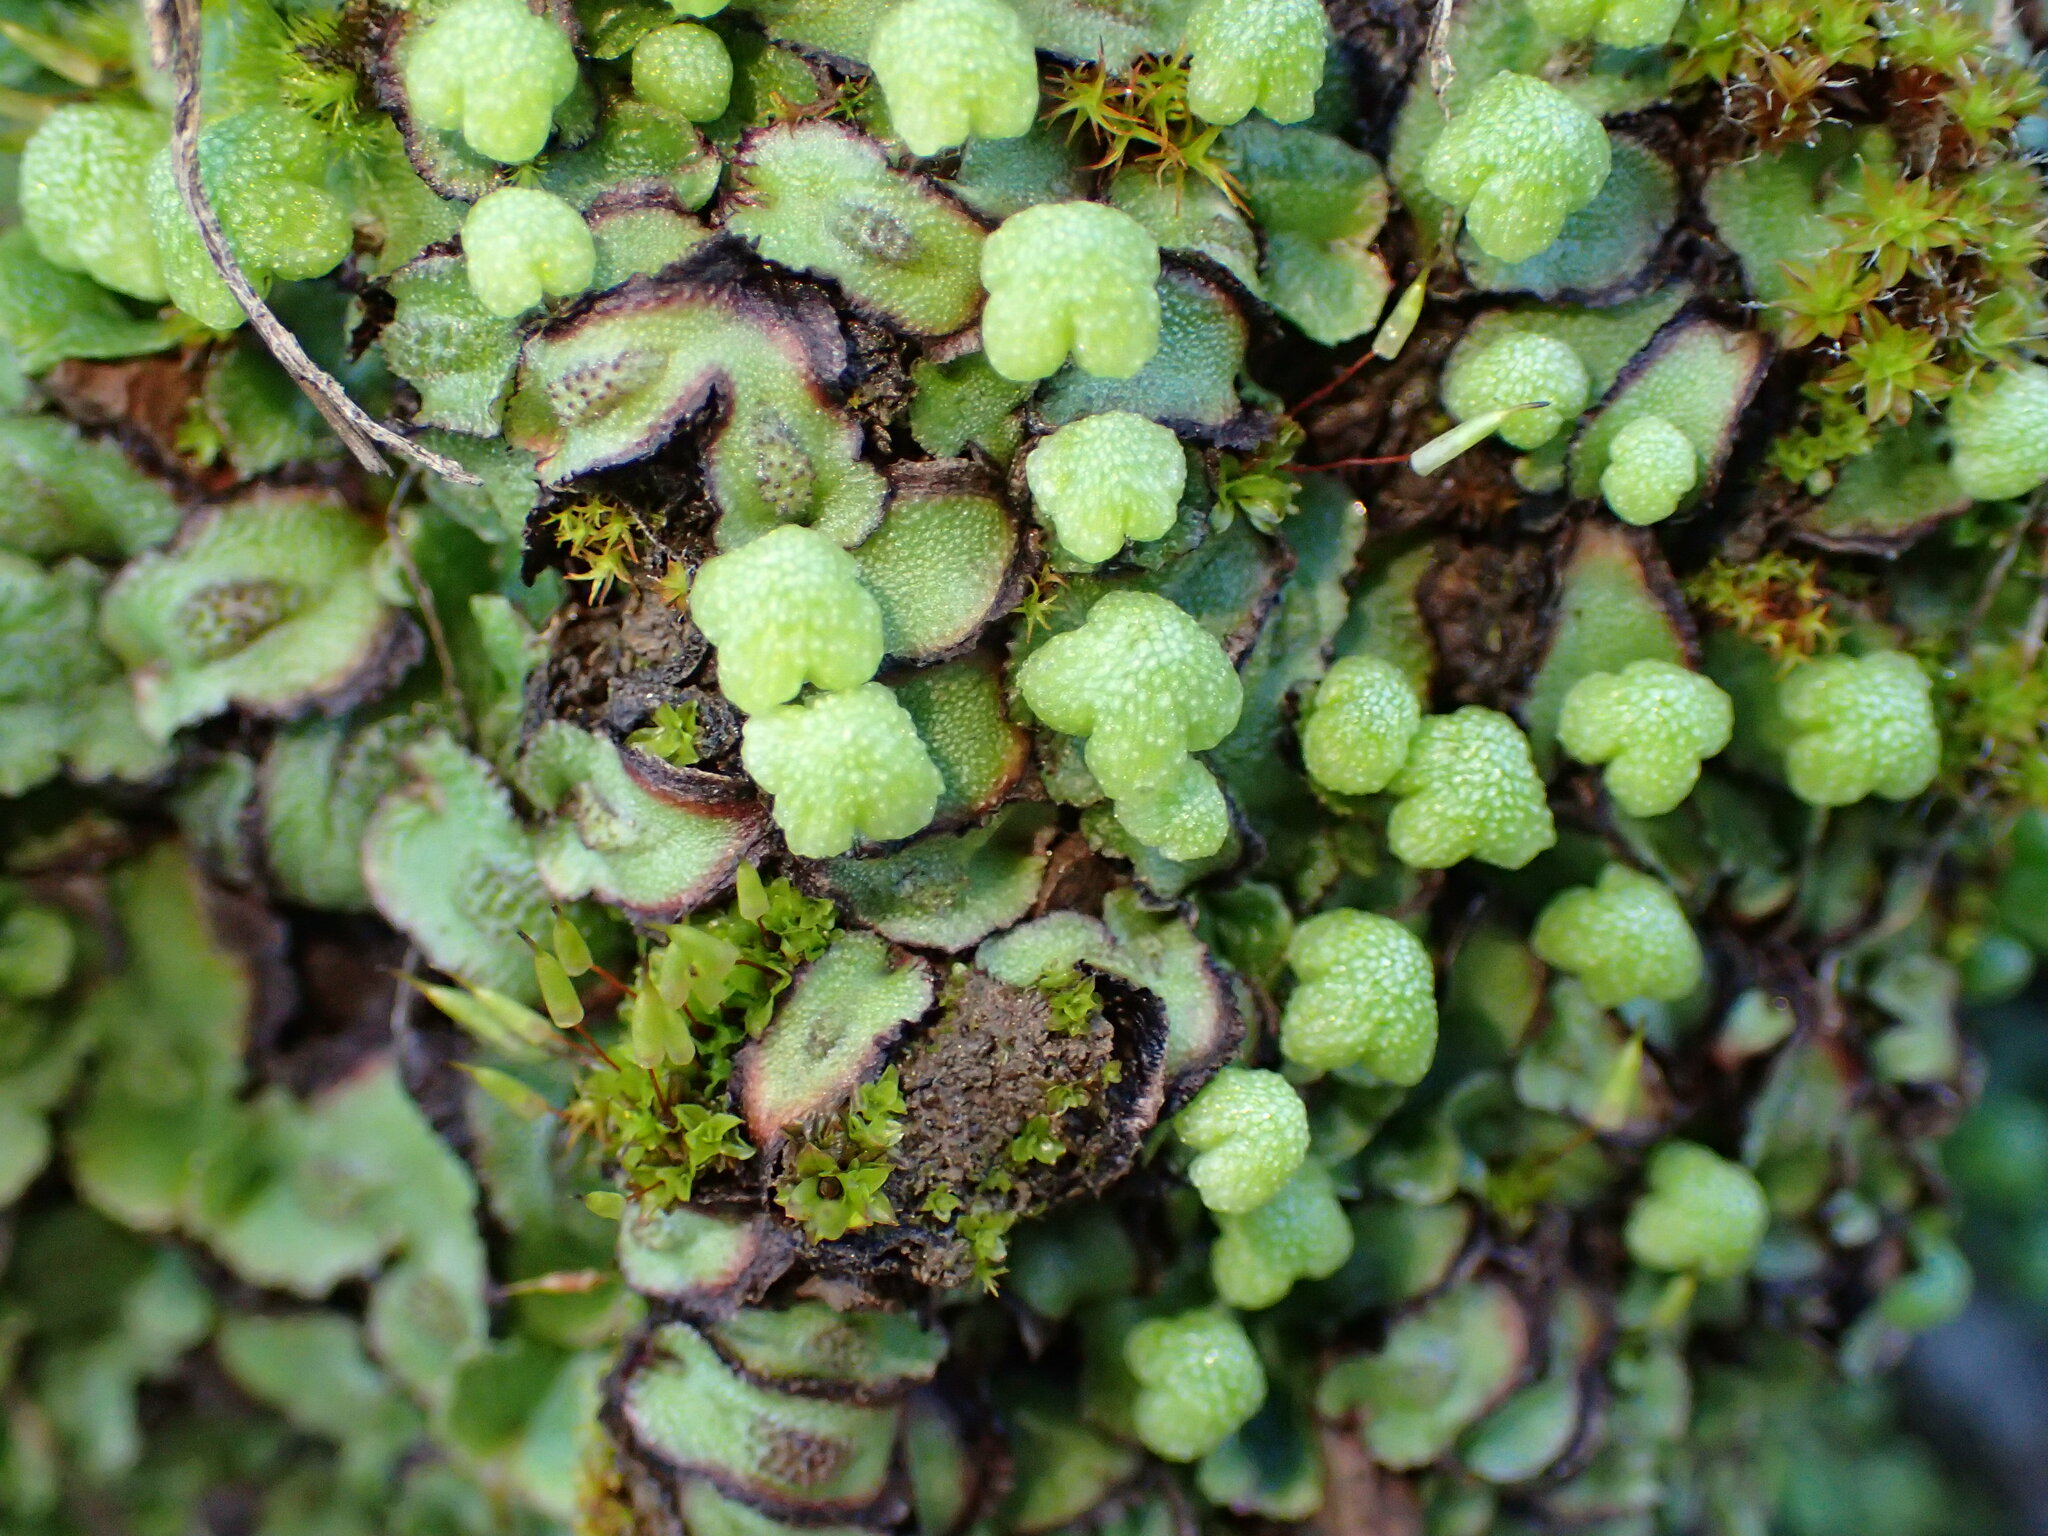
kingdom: Plantae
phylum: Marchantiophyta
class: Marchantiopsida
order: Marchantiales
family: Aytoniaceae
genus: Asterella
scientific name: Asterella californica
